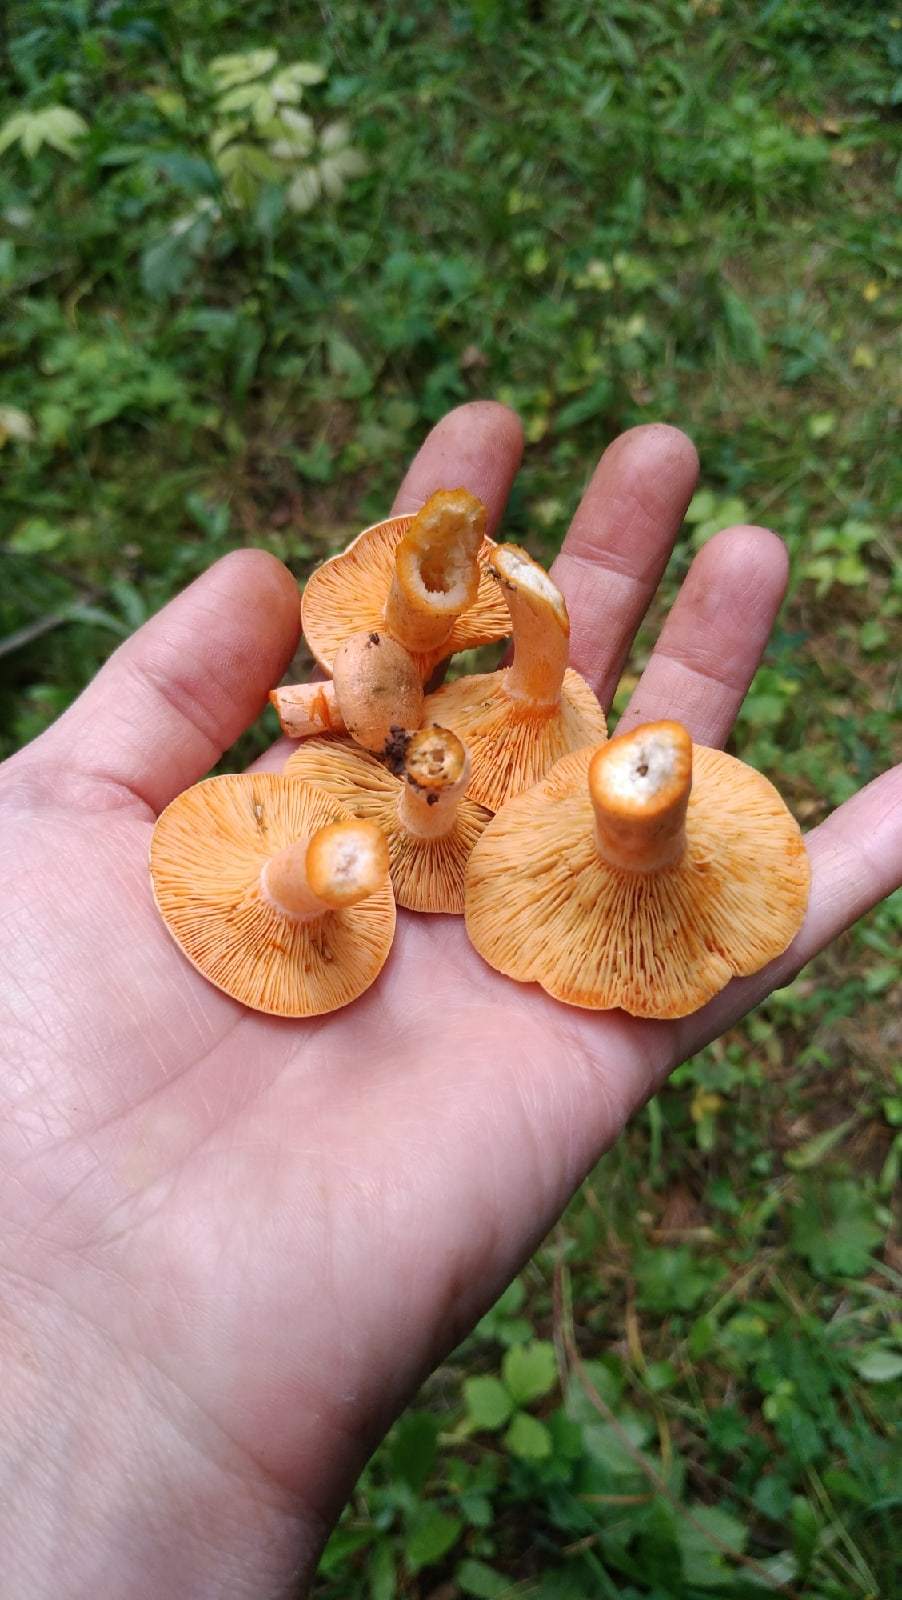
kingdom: Fungi
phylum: Basidiomycota
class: Agaricomycetes
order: Russulales
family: Russulaceae
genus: Lactarius
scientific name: Lactarius deterrimus
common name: False saffron milkcap
